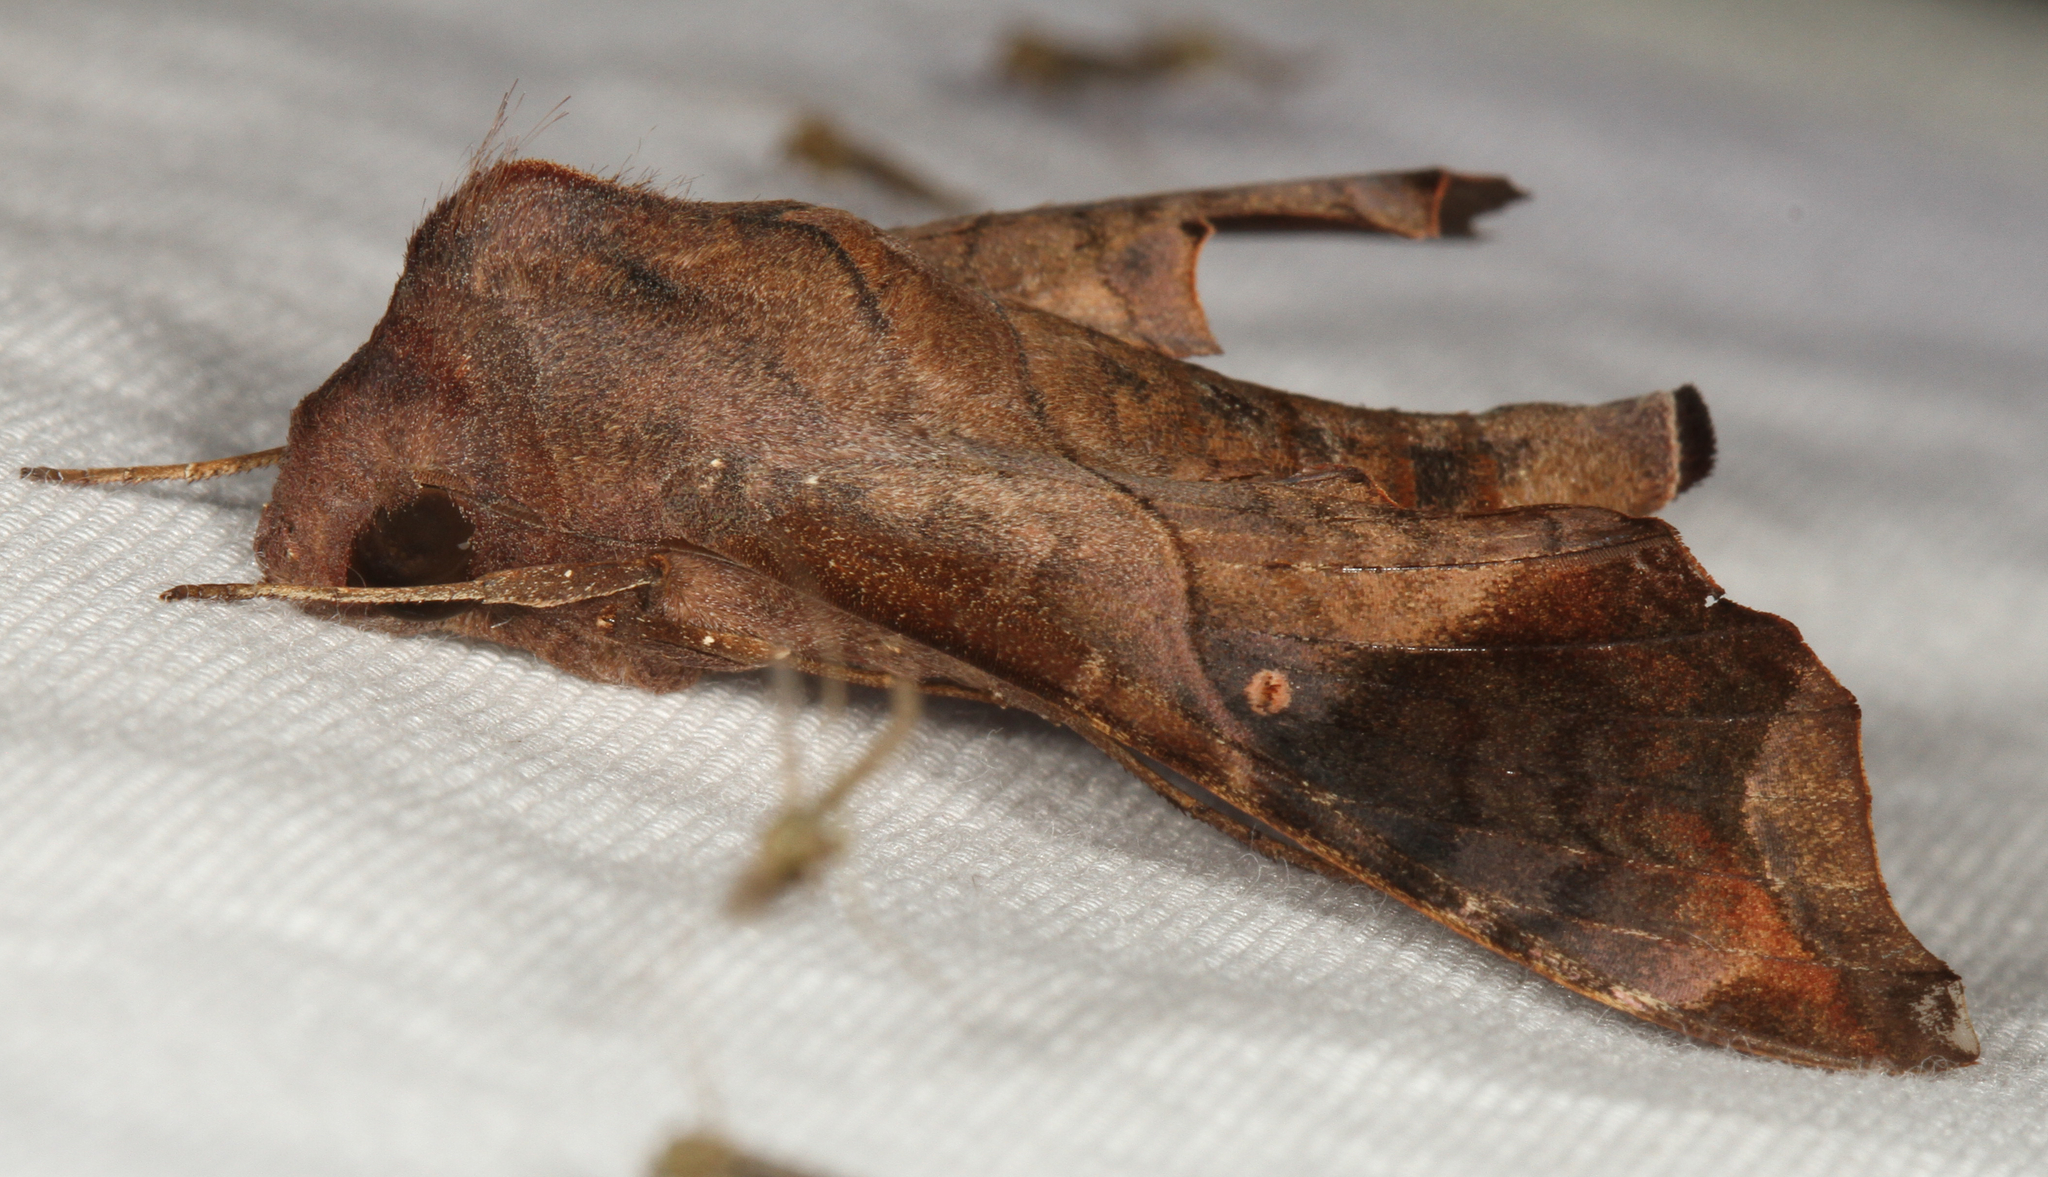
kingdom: Animalia
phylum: Arthropoda
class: Insecta
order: Lepidoptera
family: Sphingidae
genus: Enyo
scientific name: Enyo lugubris
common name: Mournful sphinx
